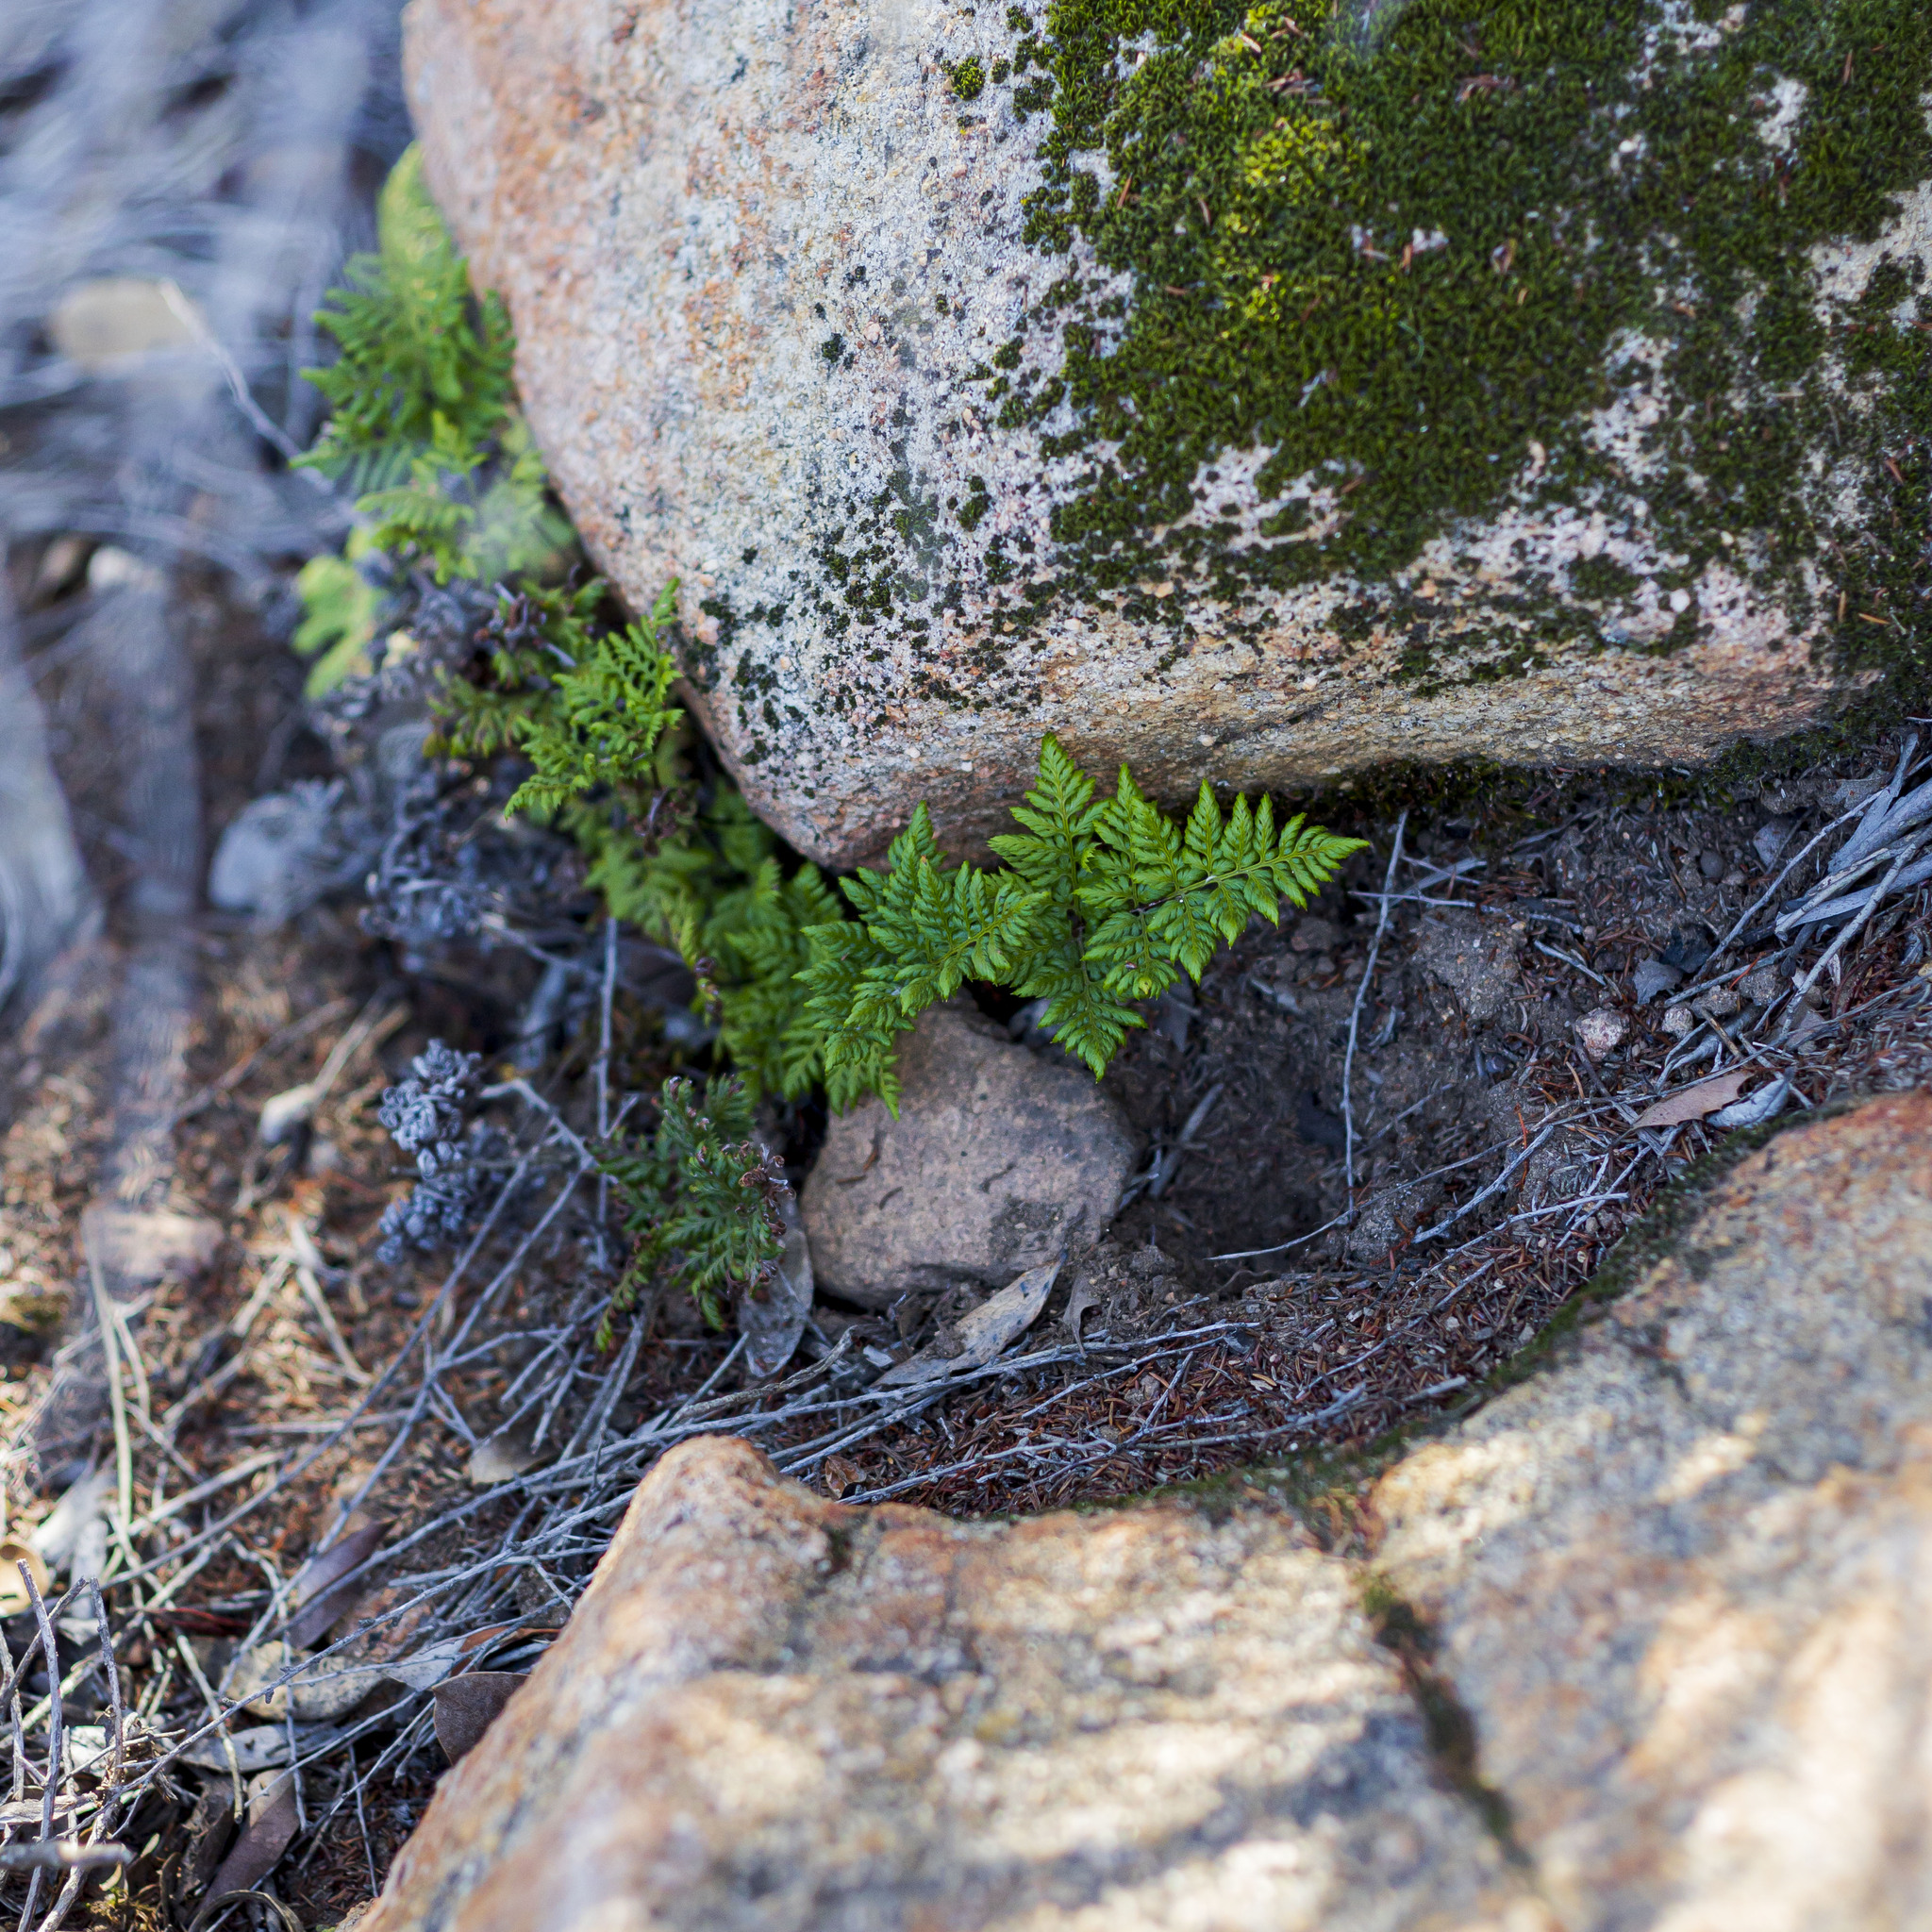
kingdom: Plantae
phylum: Tracheophyta
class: Polypodiopsida
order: Polypodiales
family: Pteridaceae
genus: Aspidotis
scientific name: Aspidotis californica
